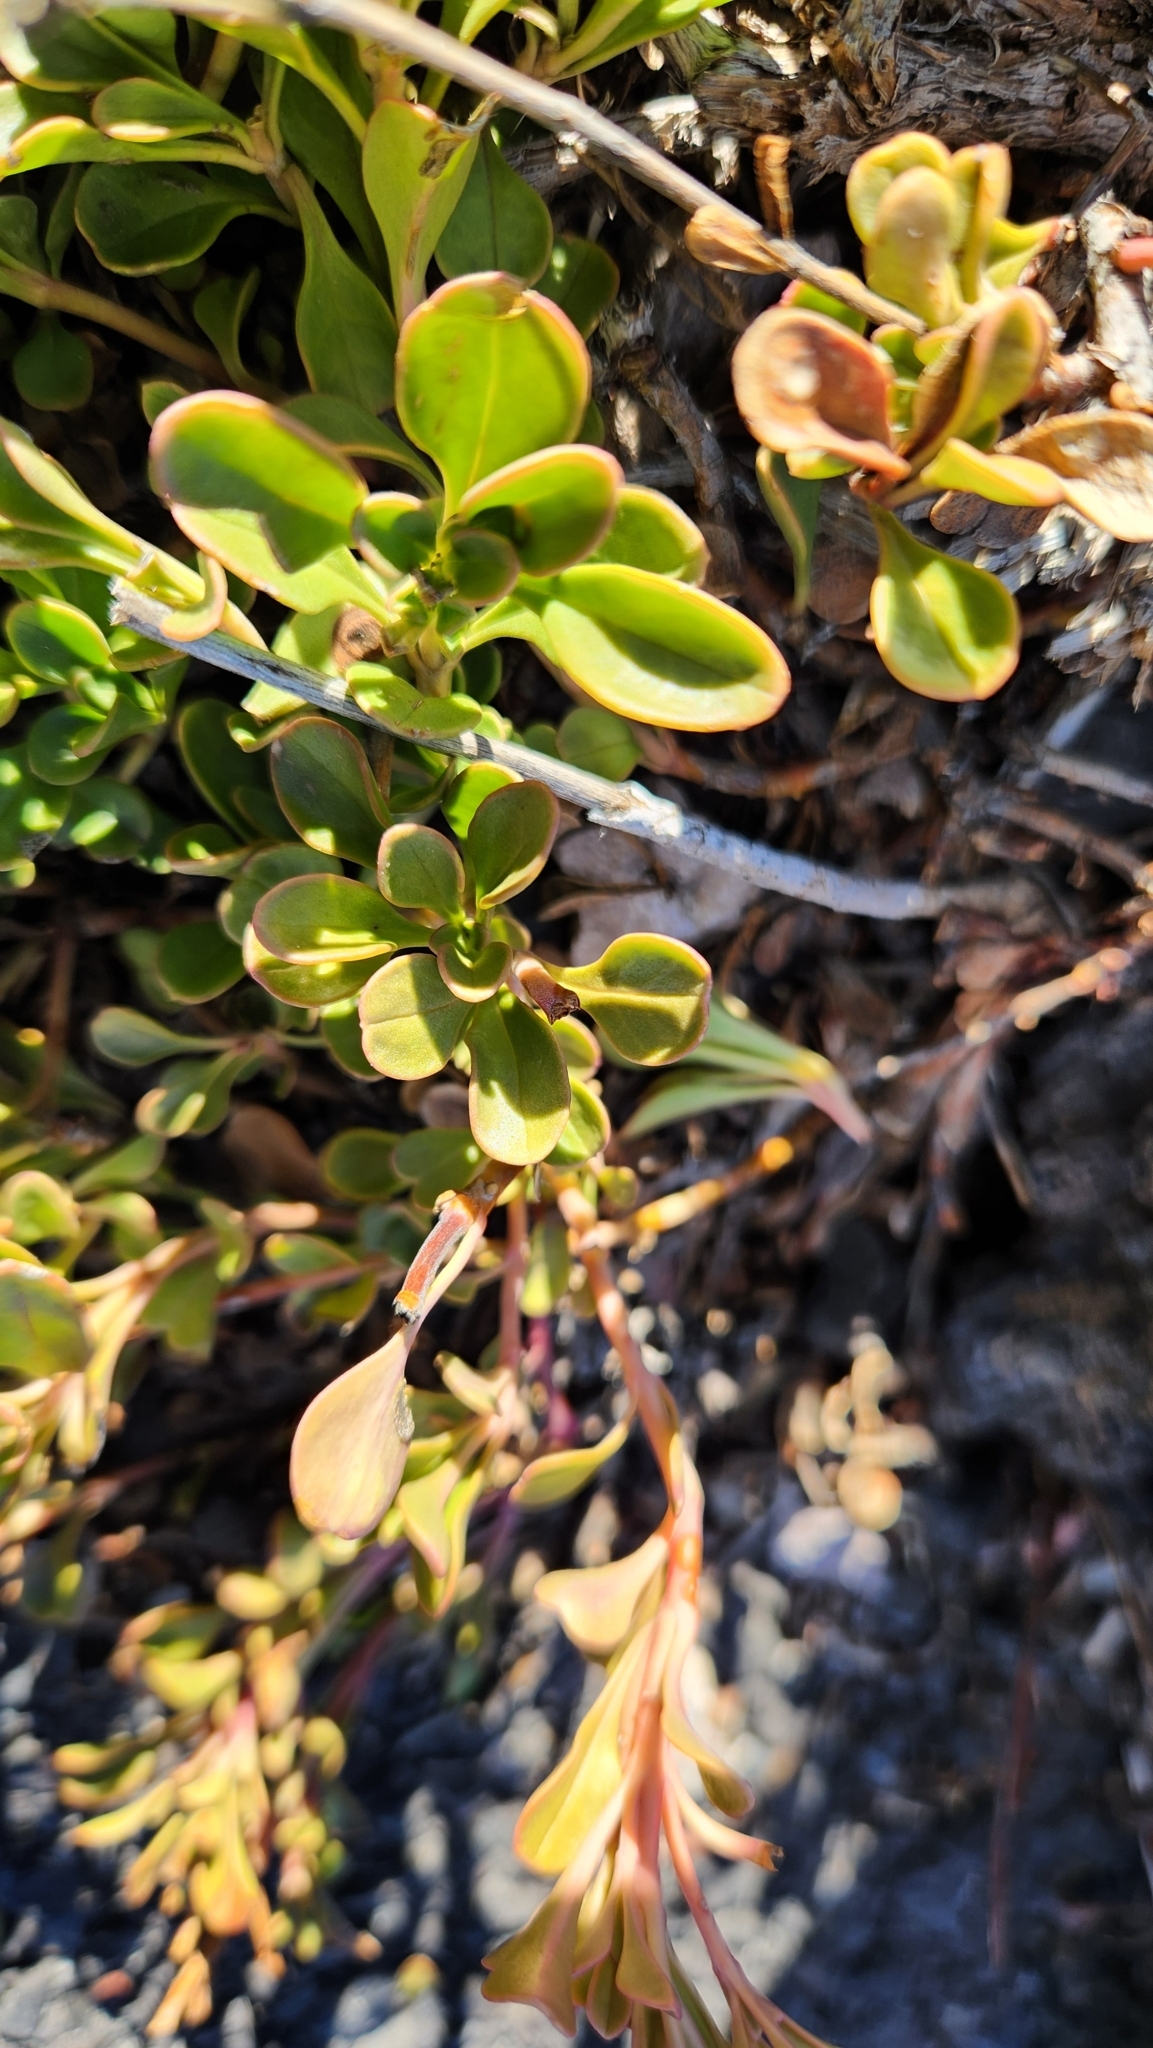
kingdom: Plantae
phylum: Tracheophyta
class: Magnoliopsida
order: Lamiales
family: Plantaginaceae
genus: Penstemon
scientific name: Penstemon davidsonii
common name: Davidson's penstemon
